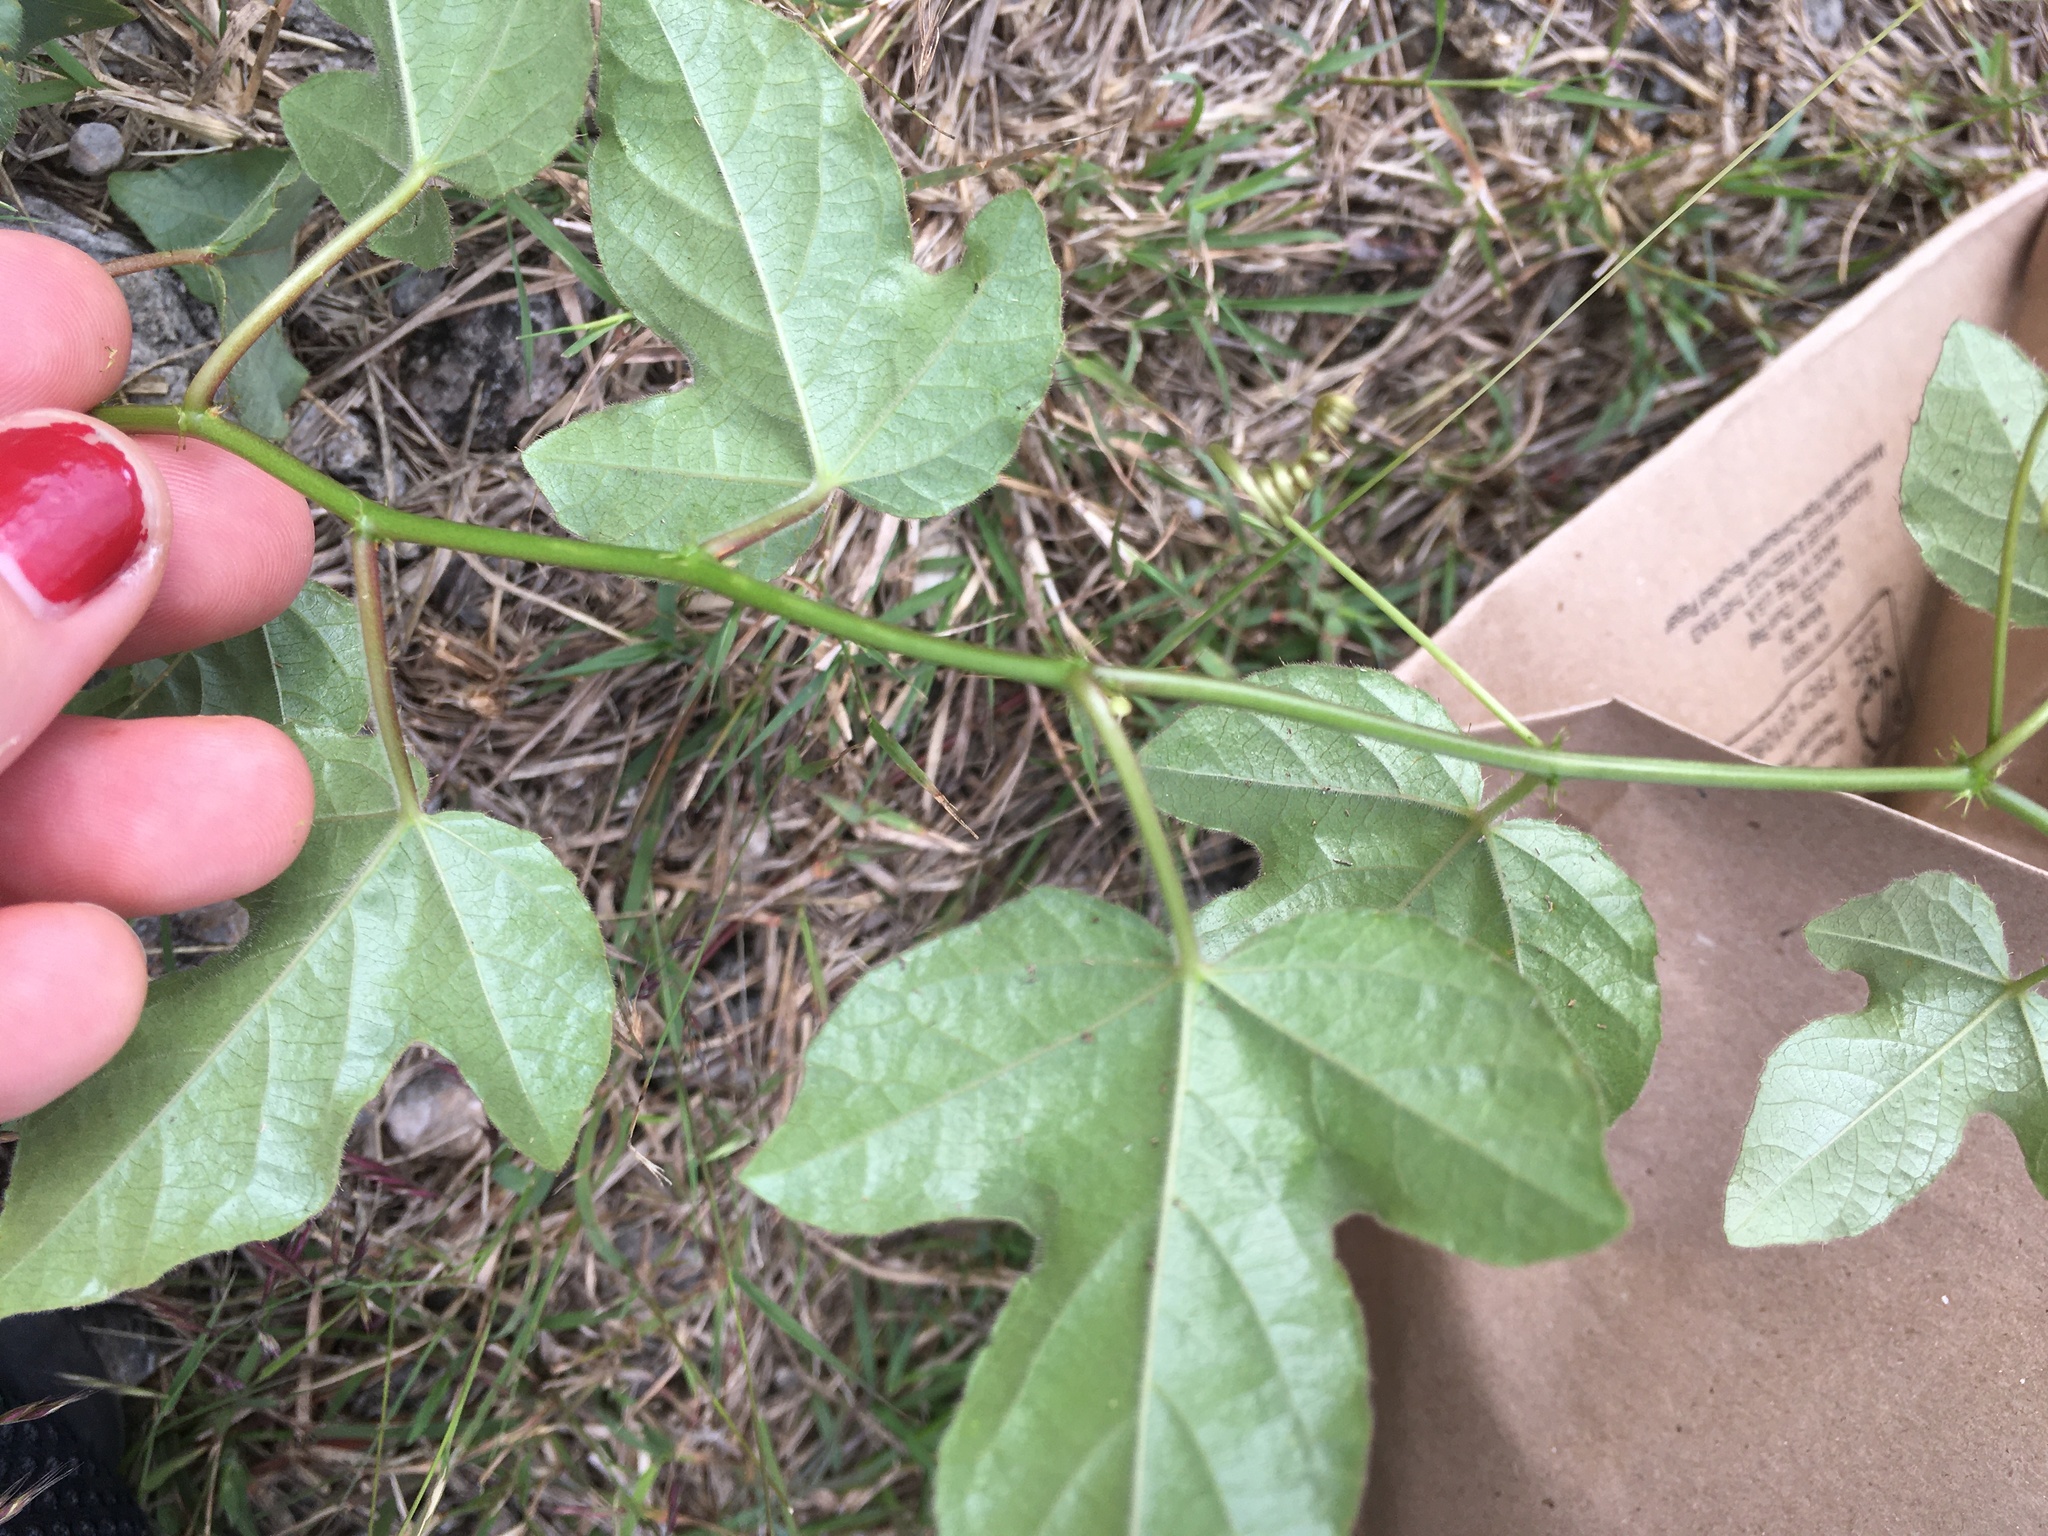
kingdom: Plantae
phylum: Tracheophyta
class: Magnoliopsida
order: Malpighiales
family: Passifloraceae
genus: Passiflora
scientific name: Passiflora ciliata
